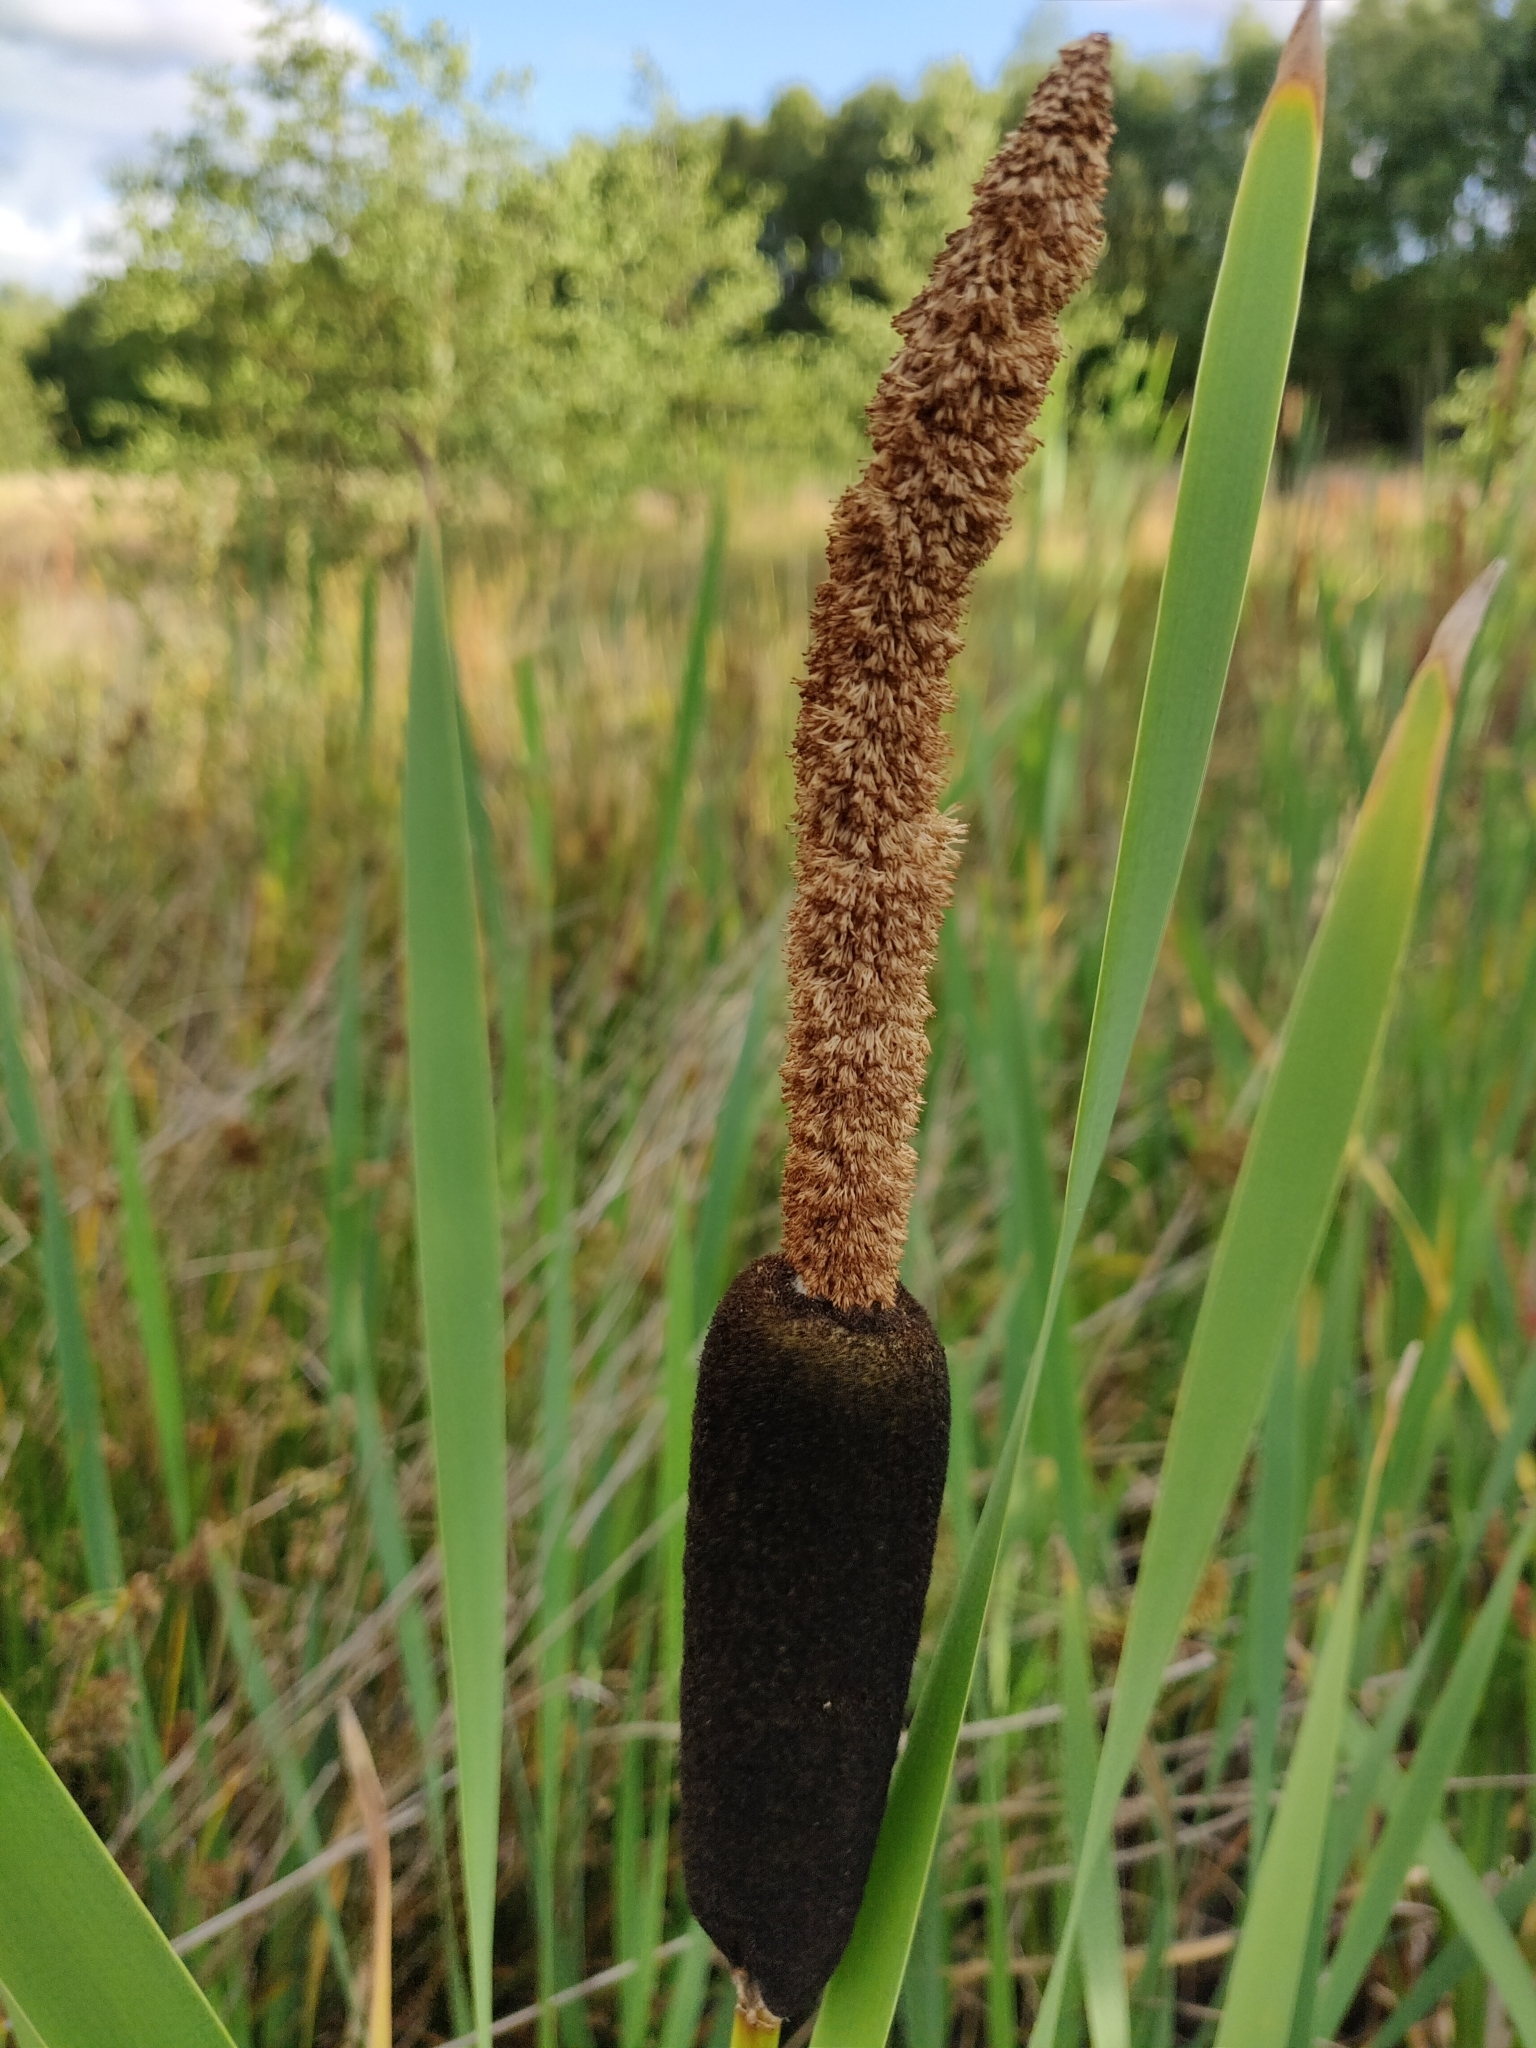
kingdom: Plantae
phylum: Tracheophyta
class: Liliopsida
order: Poales
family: Typhaceae
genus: Typha
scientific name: Typha latifolia
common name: Broadleaf cattail
